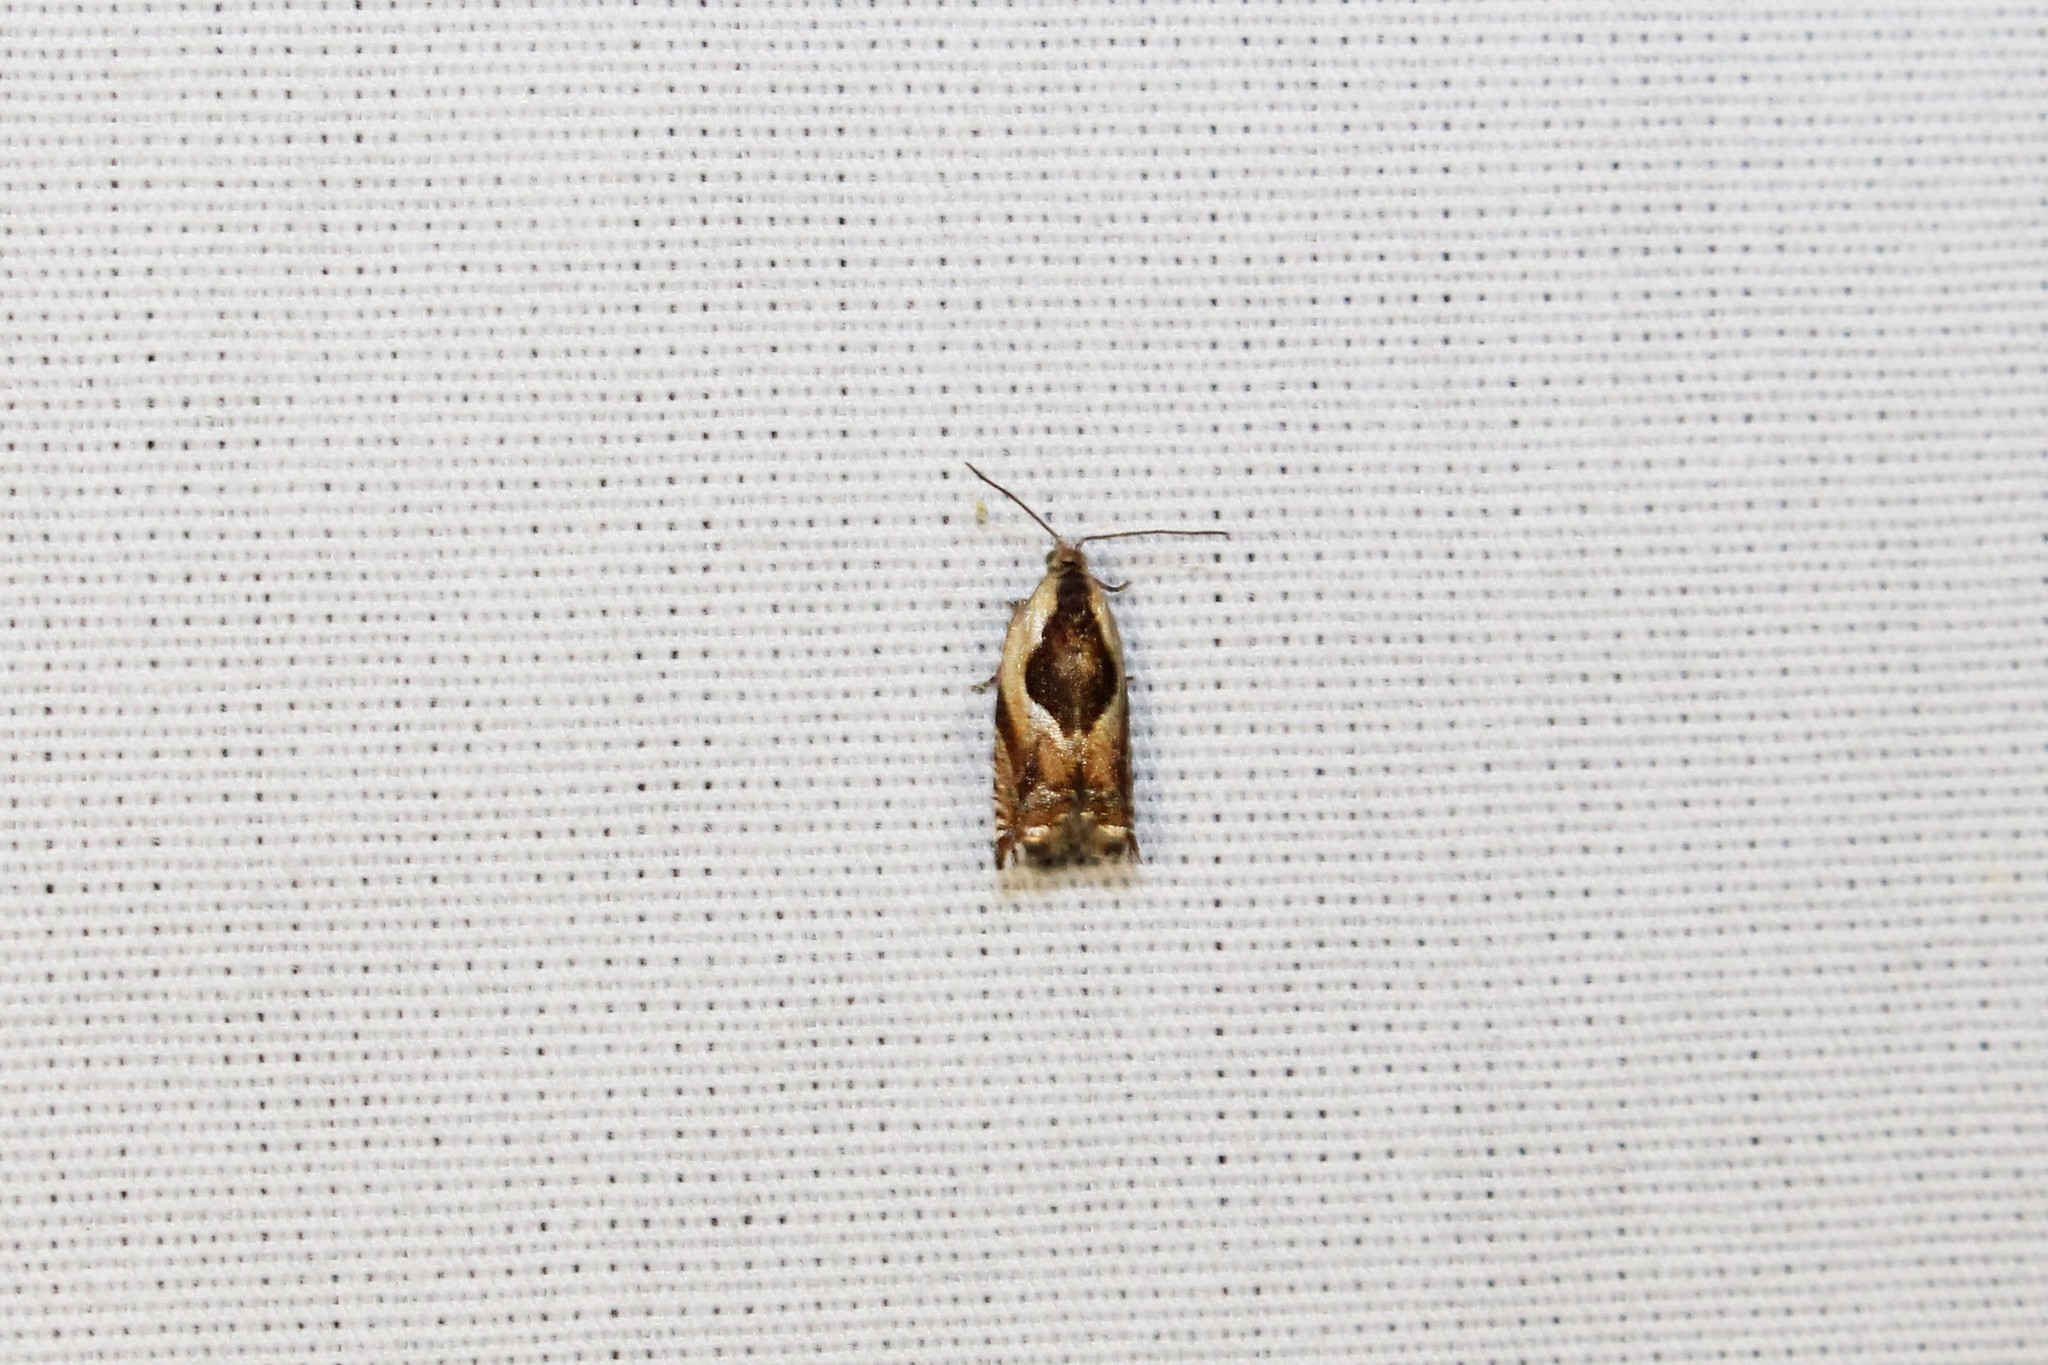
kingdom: Animalia
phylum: Arthropoda
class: Insecta
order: Lepidoptera
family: Tortricidae
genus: Ancylis
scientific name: Ancylis metamelana
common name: Black-marked ancylis moth
